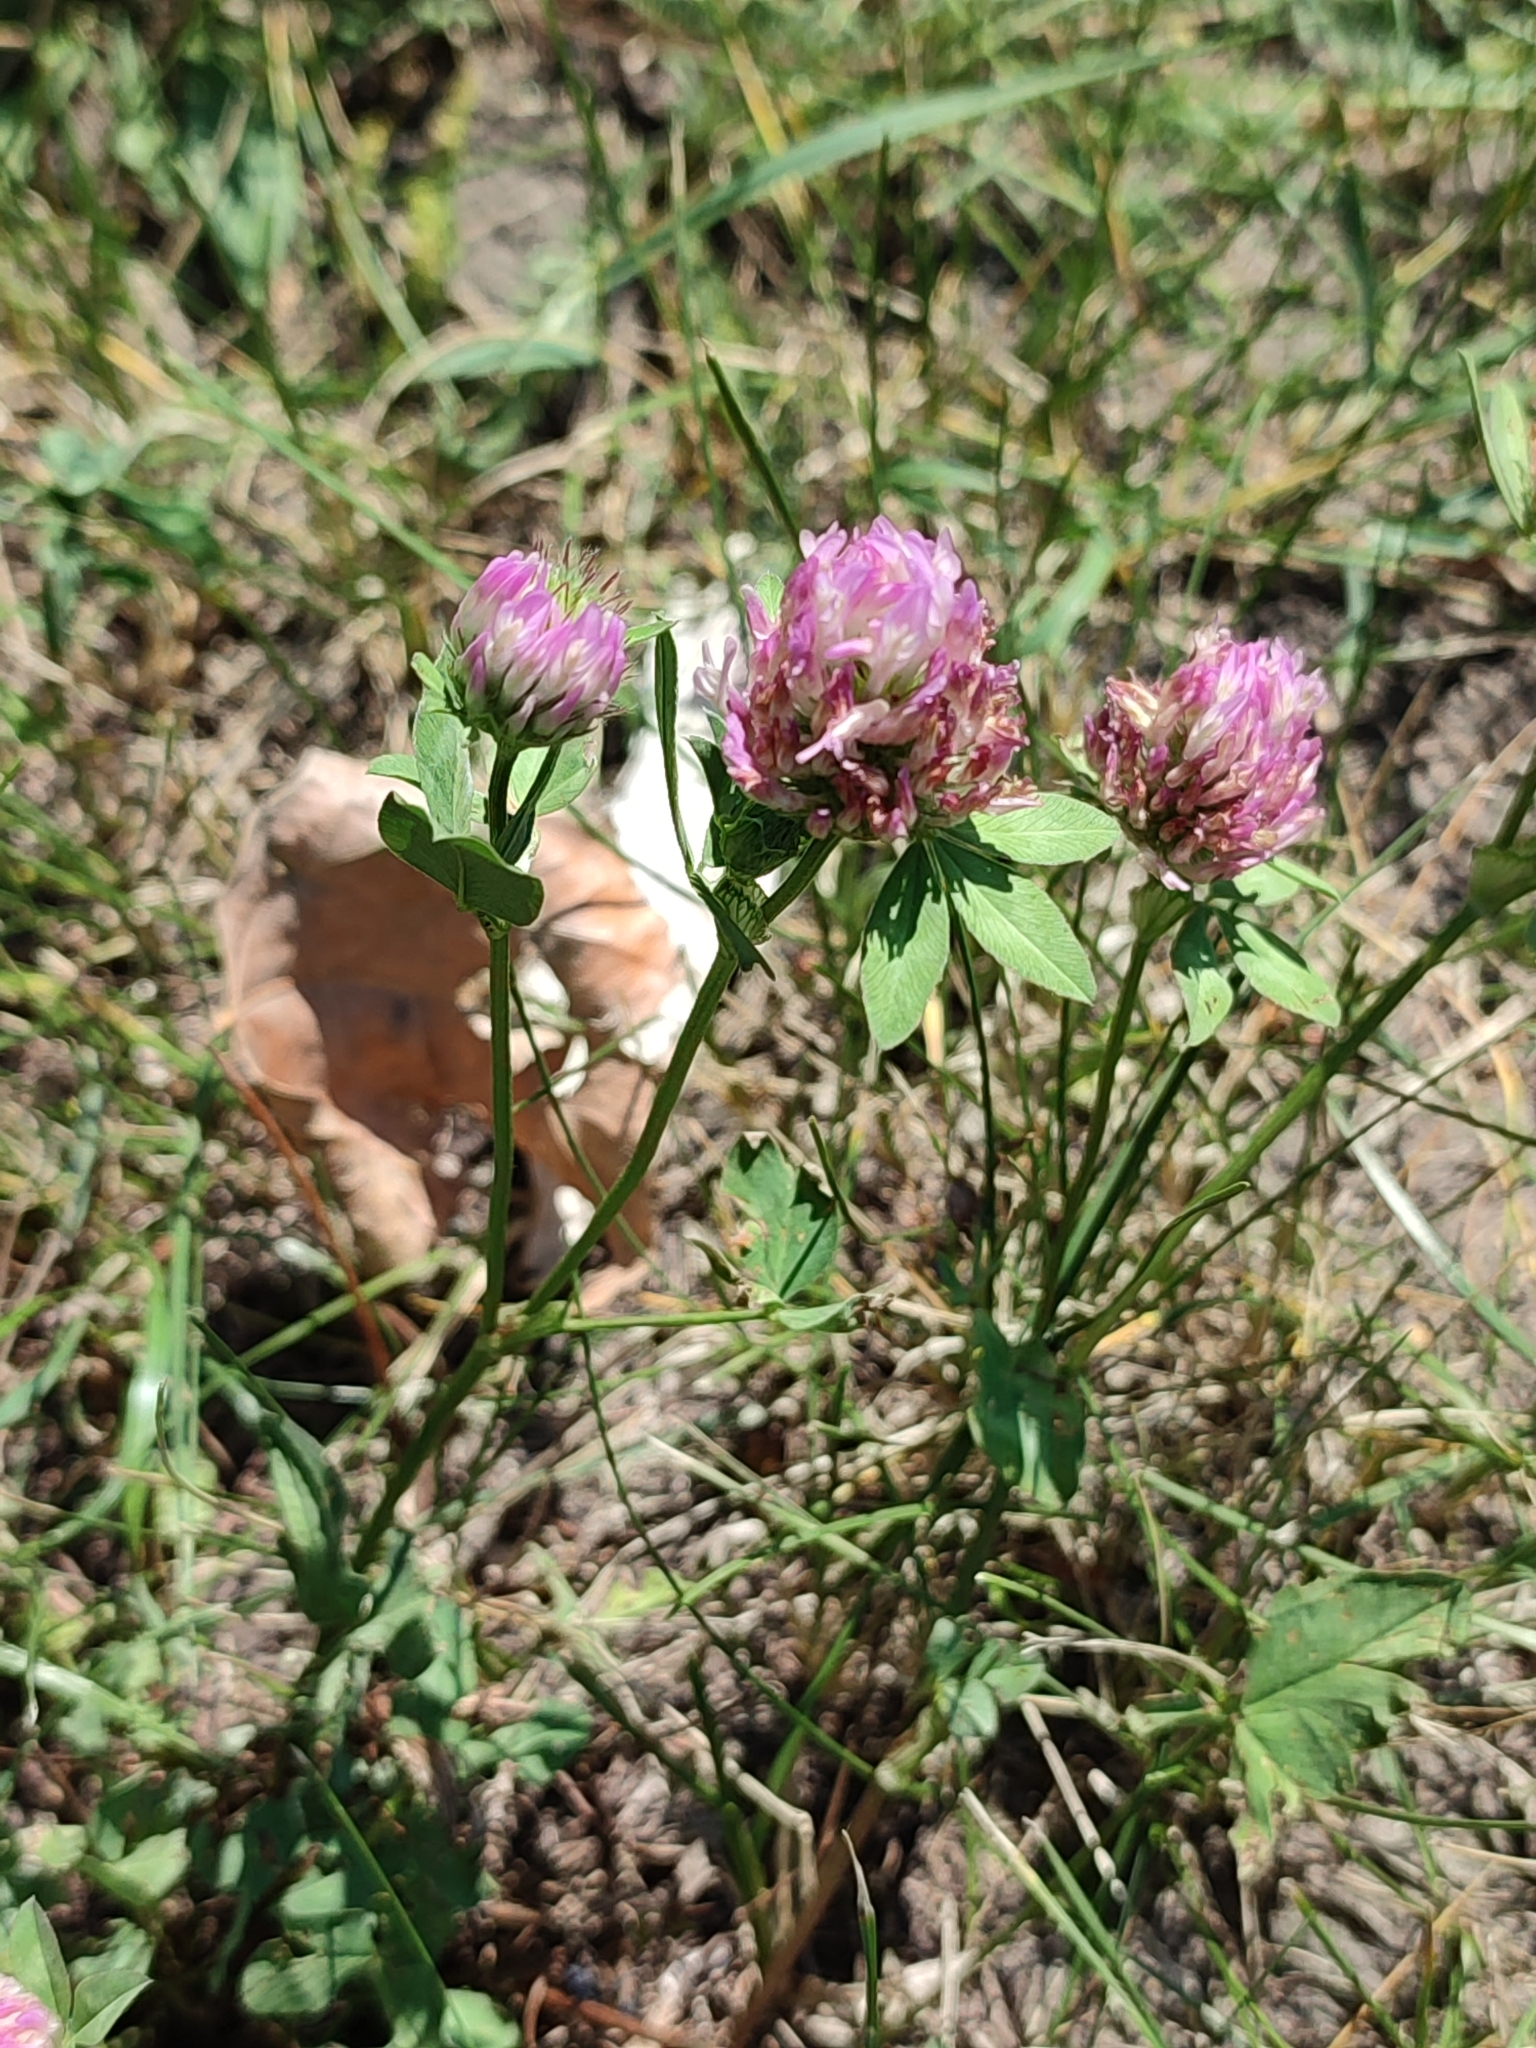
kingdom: Plantae
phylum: Tracheophyta
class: Magnoliopsida
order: Fabales
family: Fabaceae
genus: Trifolium
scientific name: Trifolium pratense
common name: Red clover
